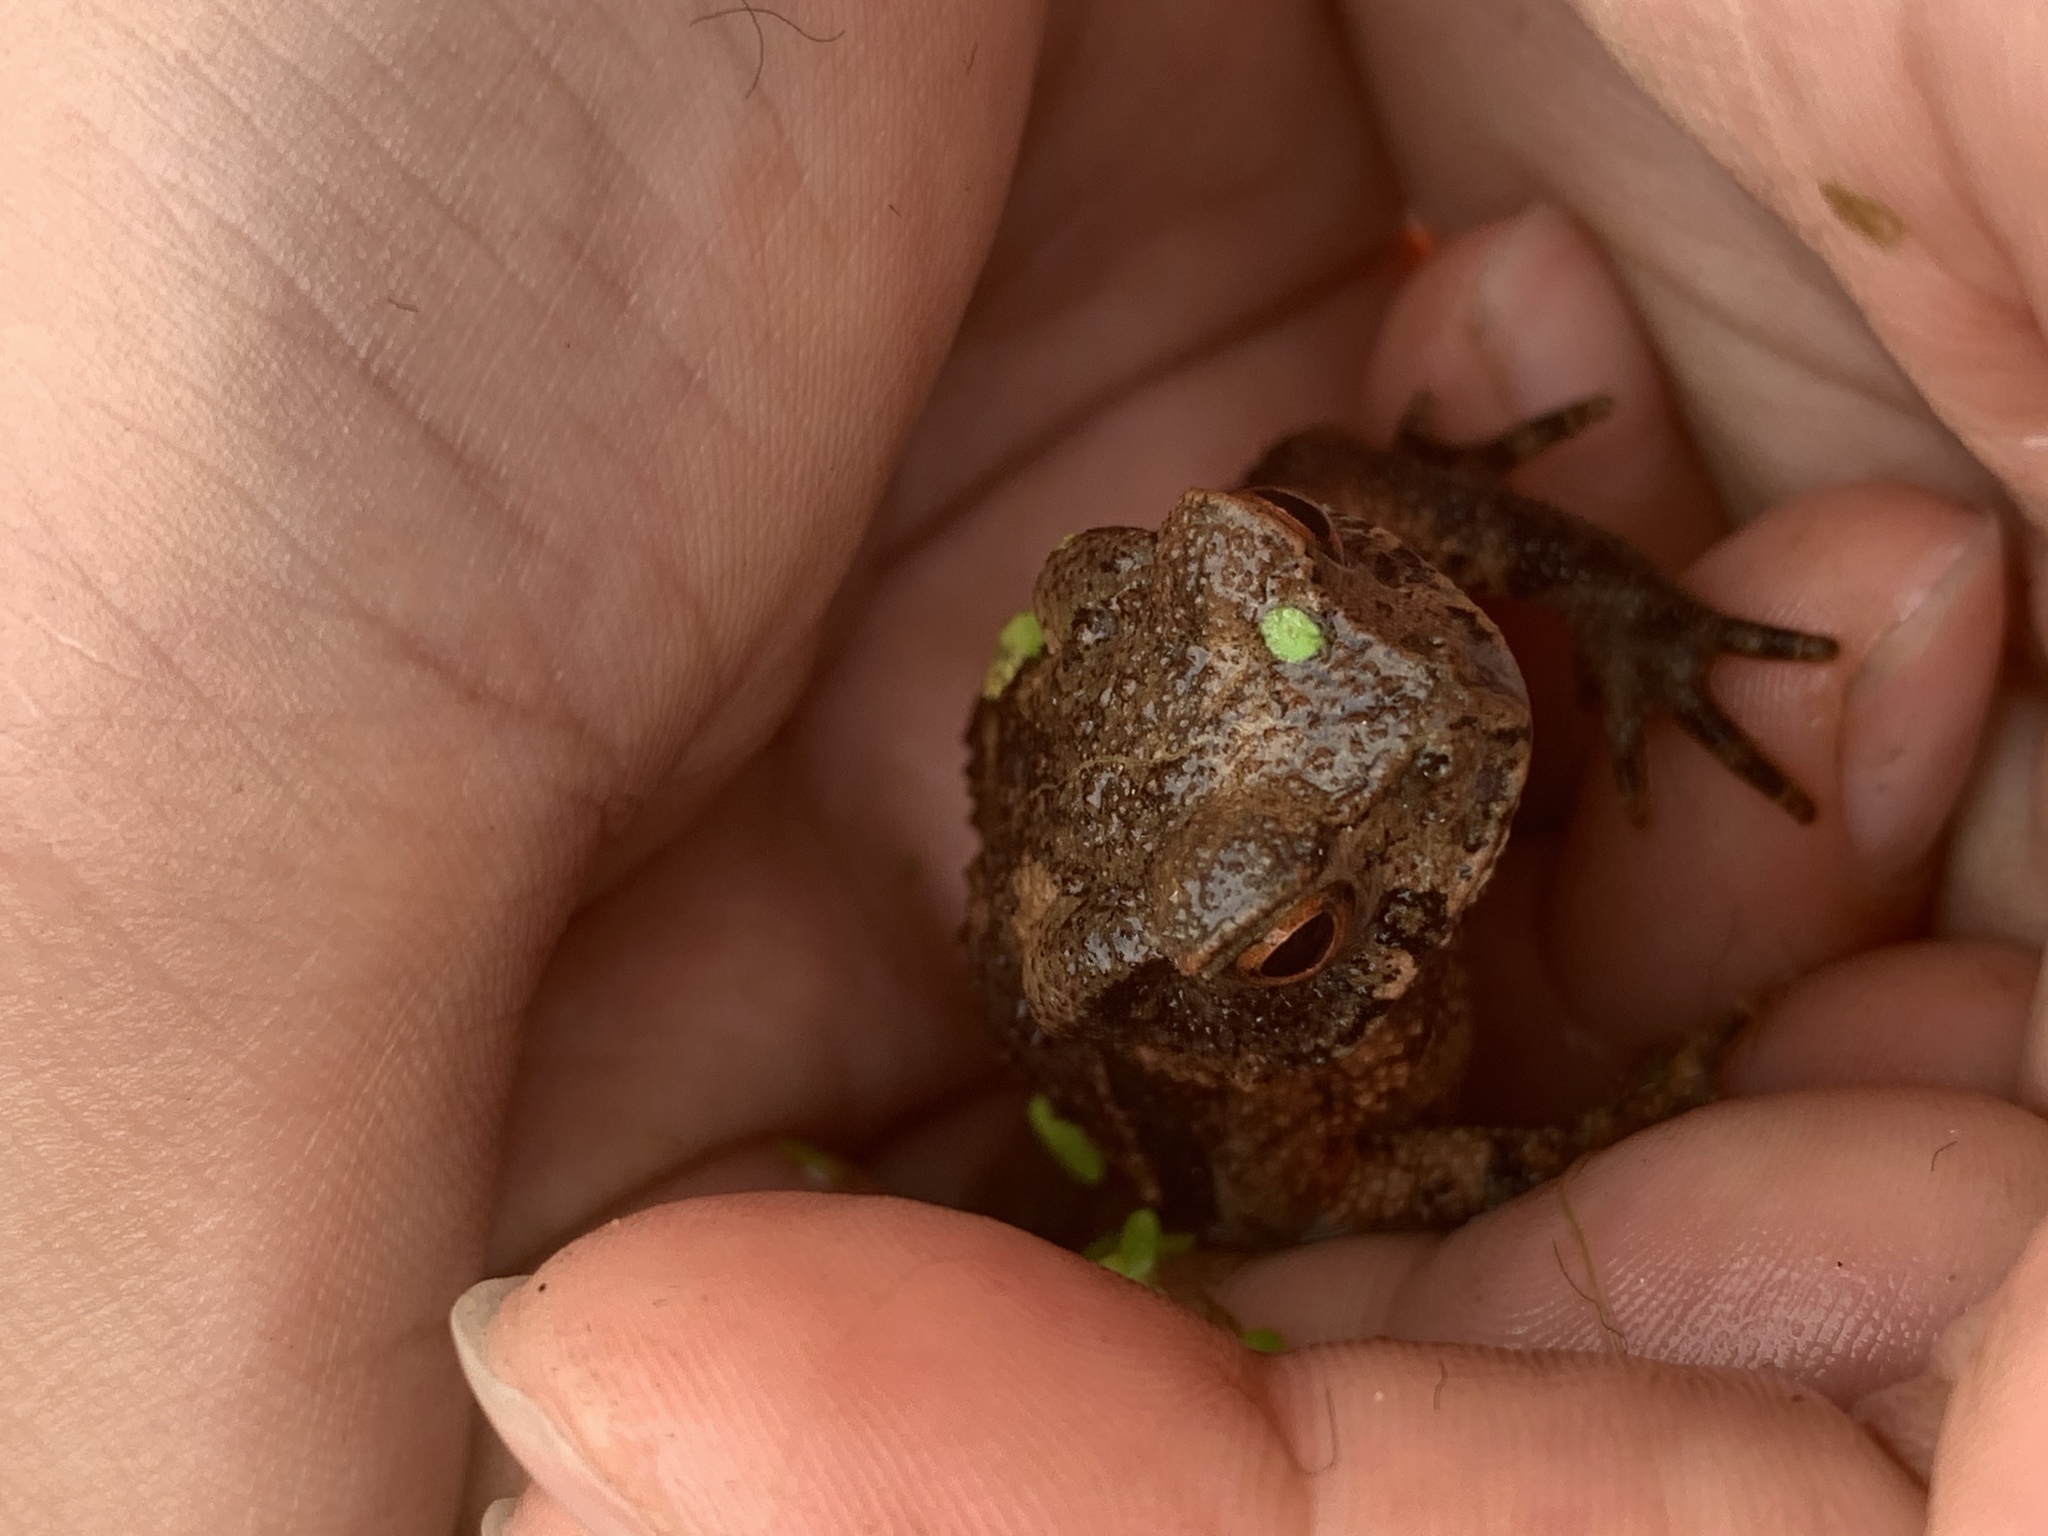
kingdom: Animalia
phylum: Chordata
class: Amphibia
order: Anura
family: Bufonidae
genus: Bufo
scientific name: Bufo bankorensis
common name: Bankor toad
